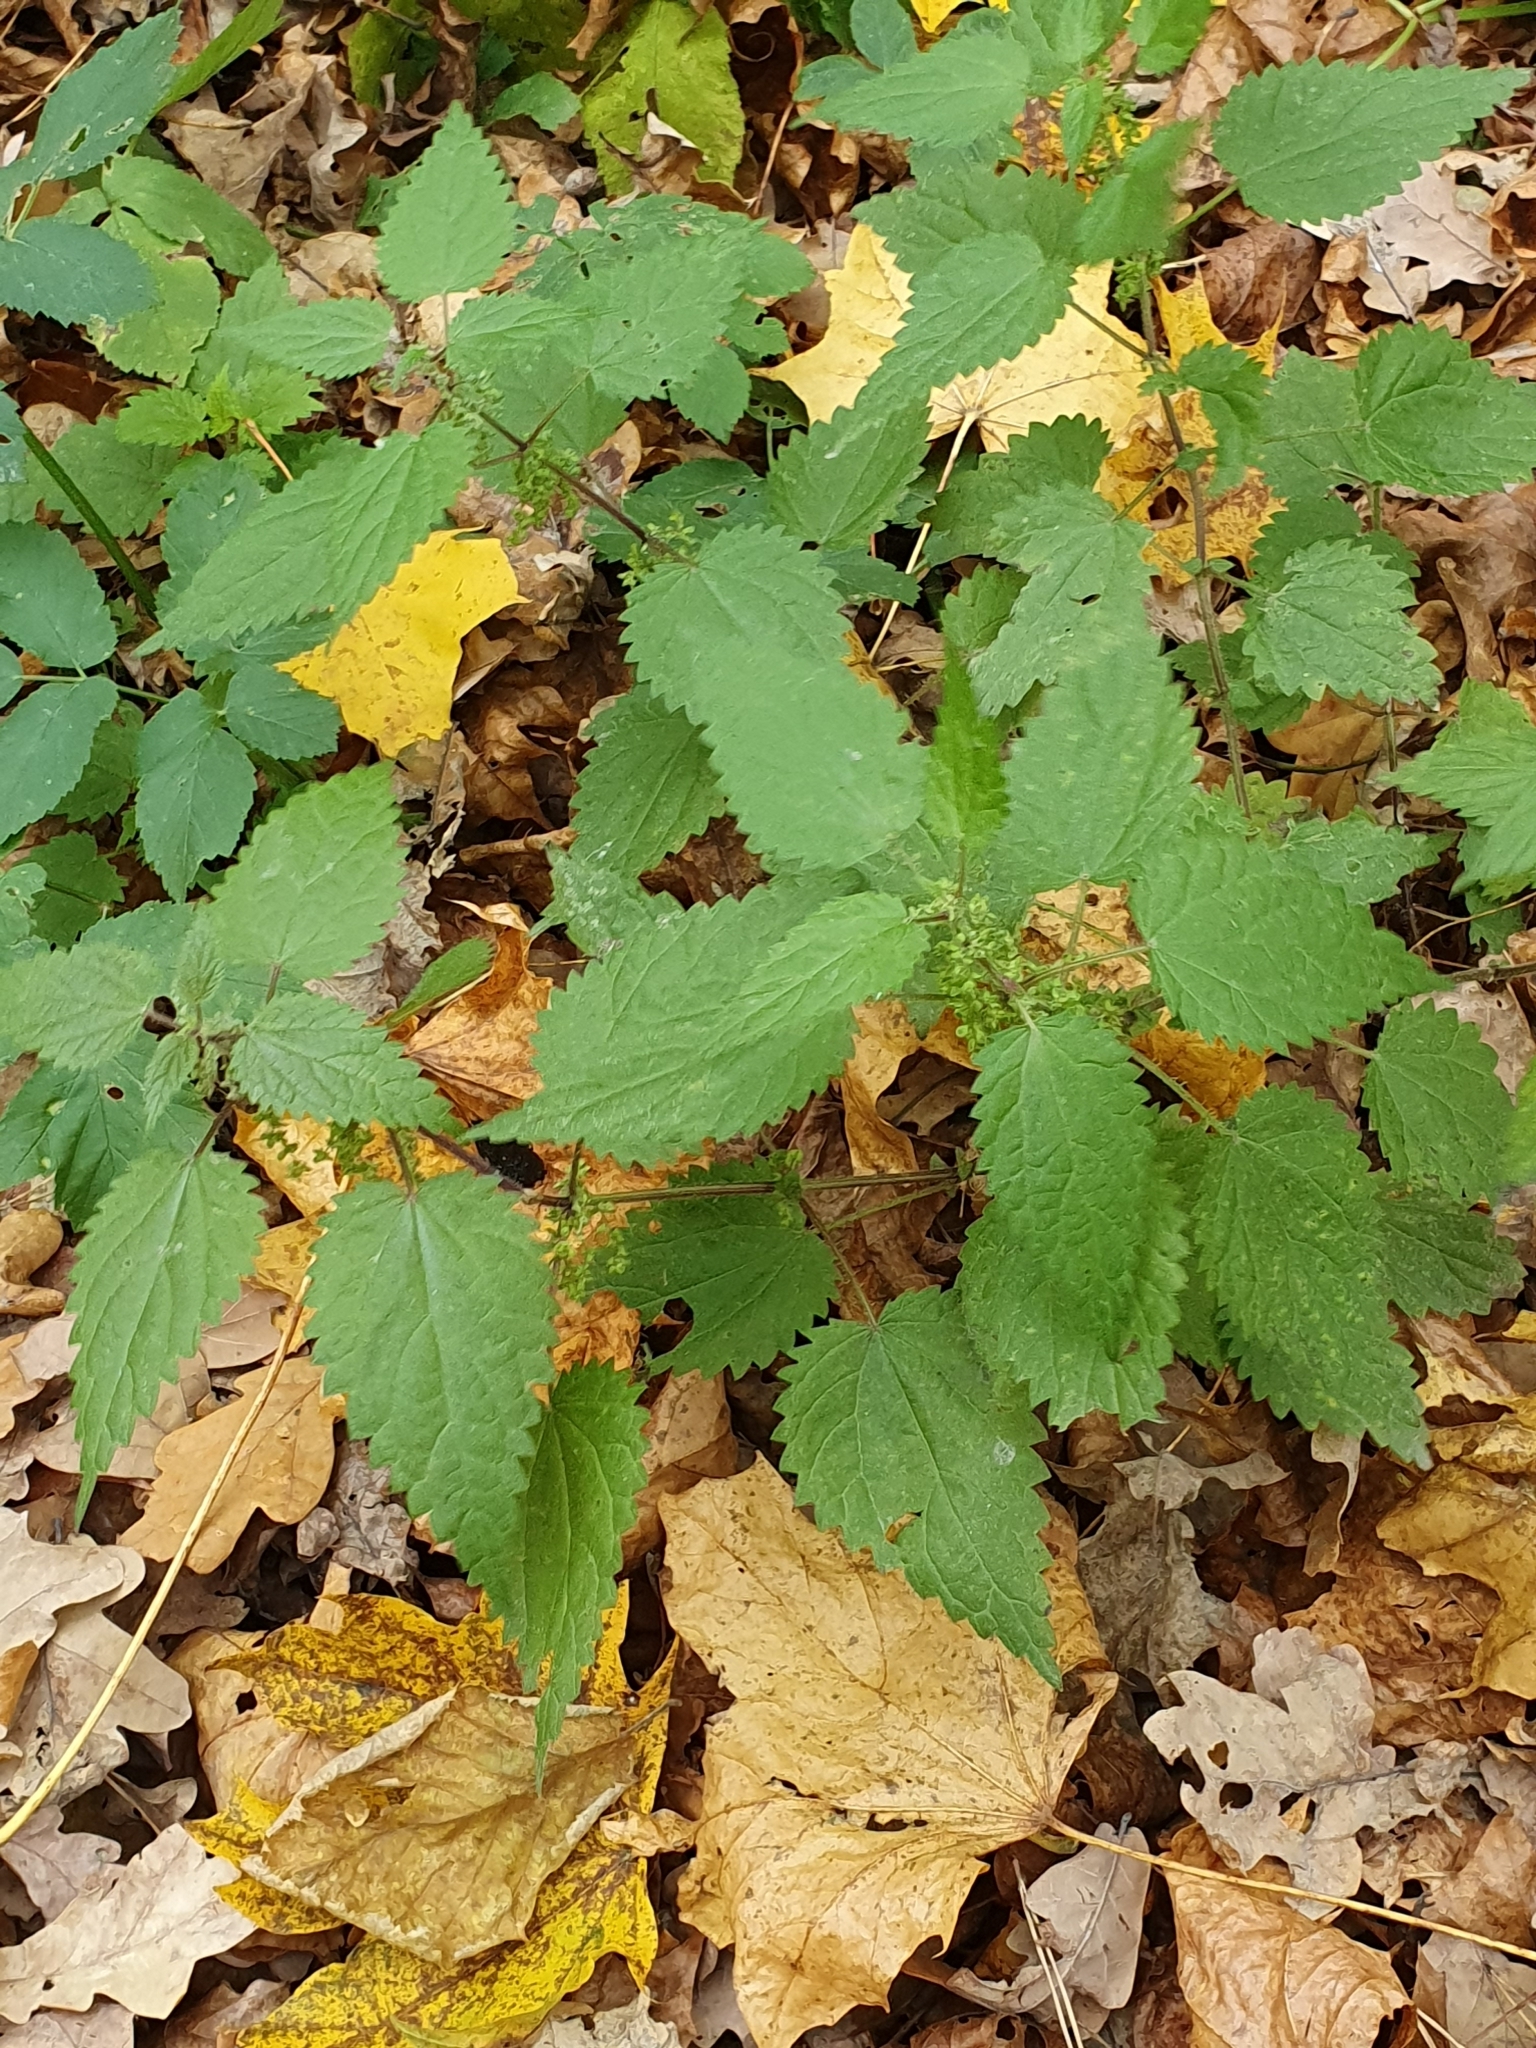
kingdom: Plantae
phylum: Tracheophyta
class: Magnoliopsida
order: Rosales
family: Urticaceae
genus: Urtica
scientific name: Urtica dioica
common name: Common nettle
